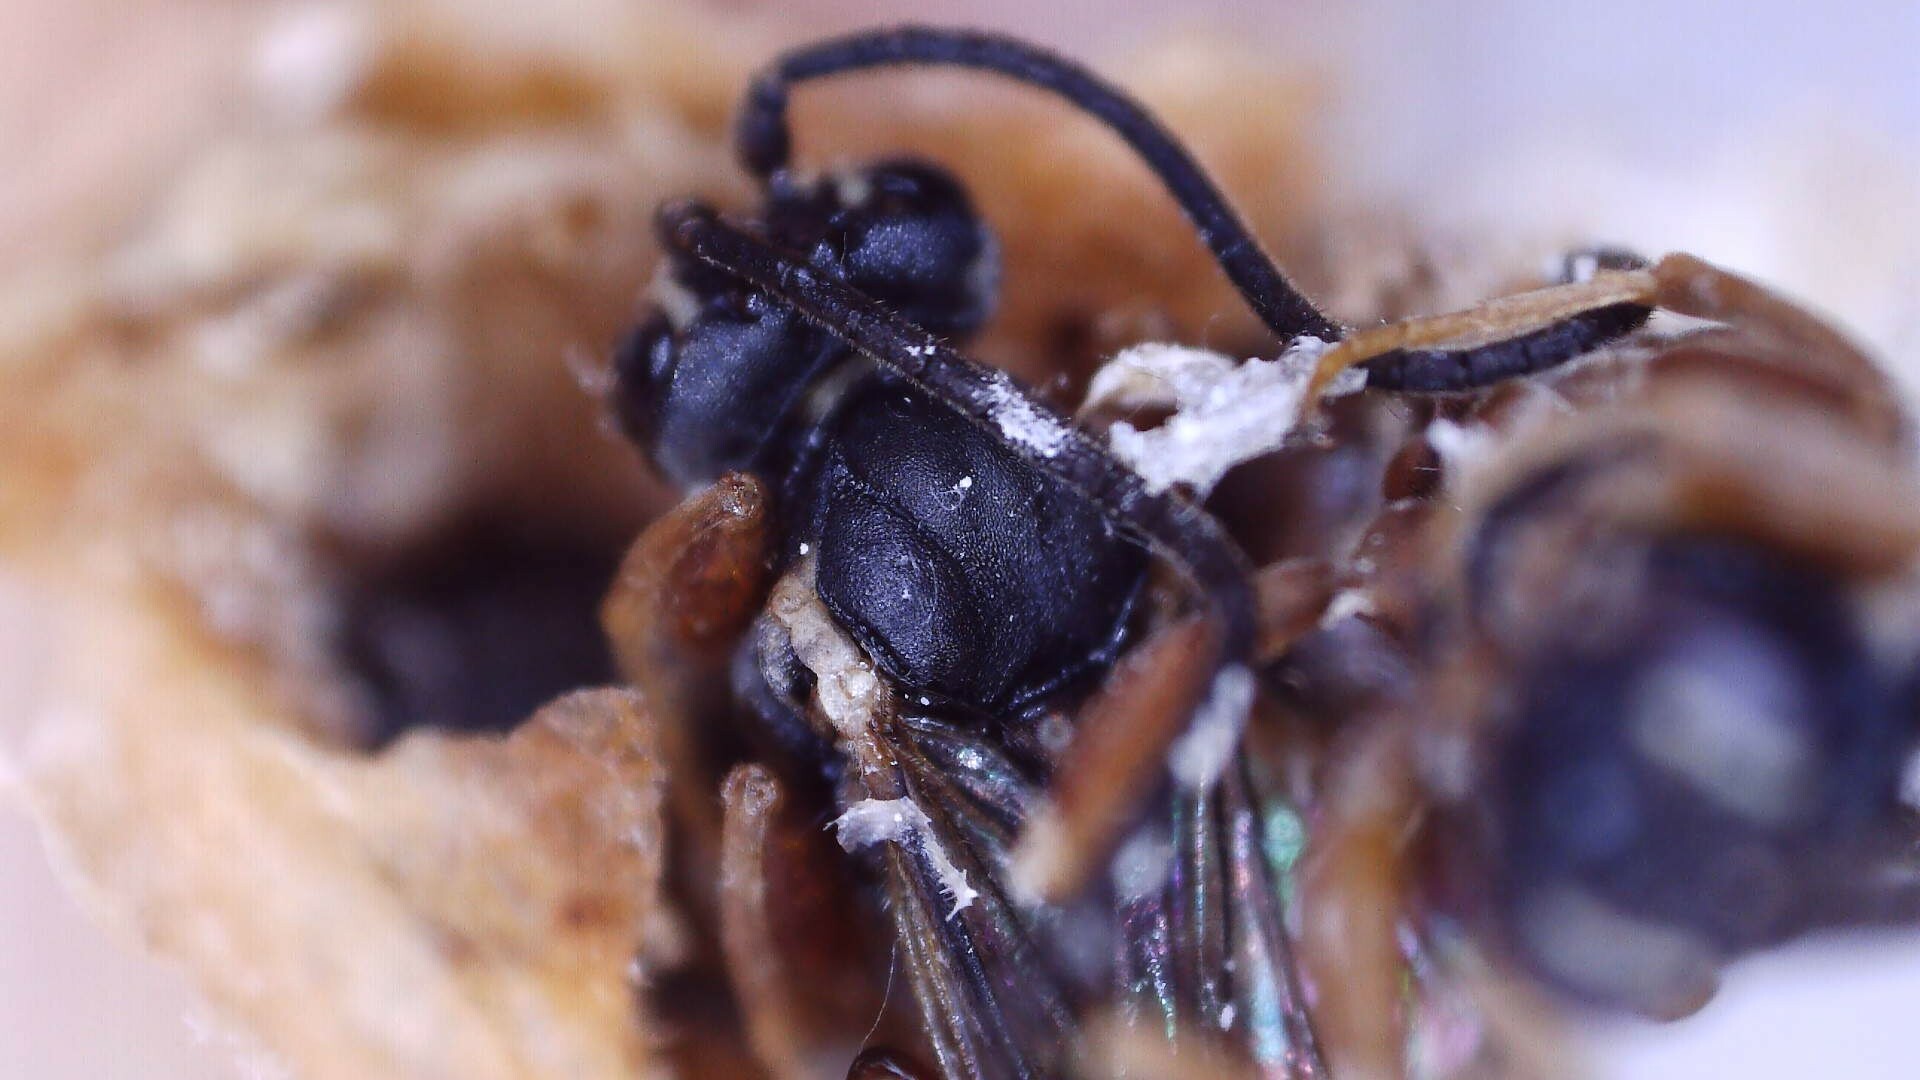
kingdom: Animalia
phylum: Arthropoda
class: Insecta
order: Hymenoptera
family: Ichneumonidae
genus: Sphecophaga
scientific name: Sphecophaga vesparum
